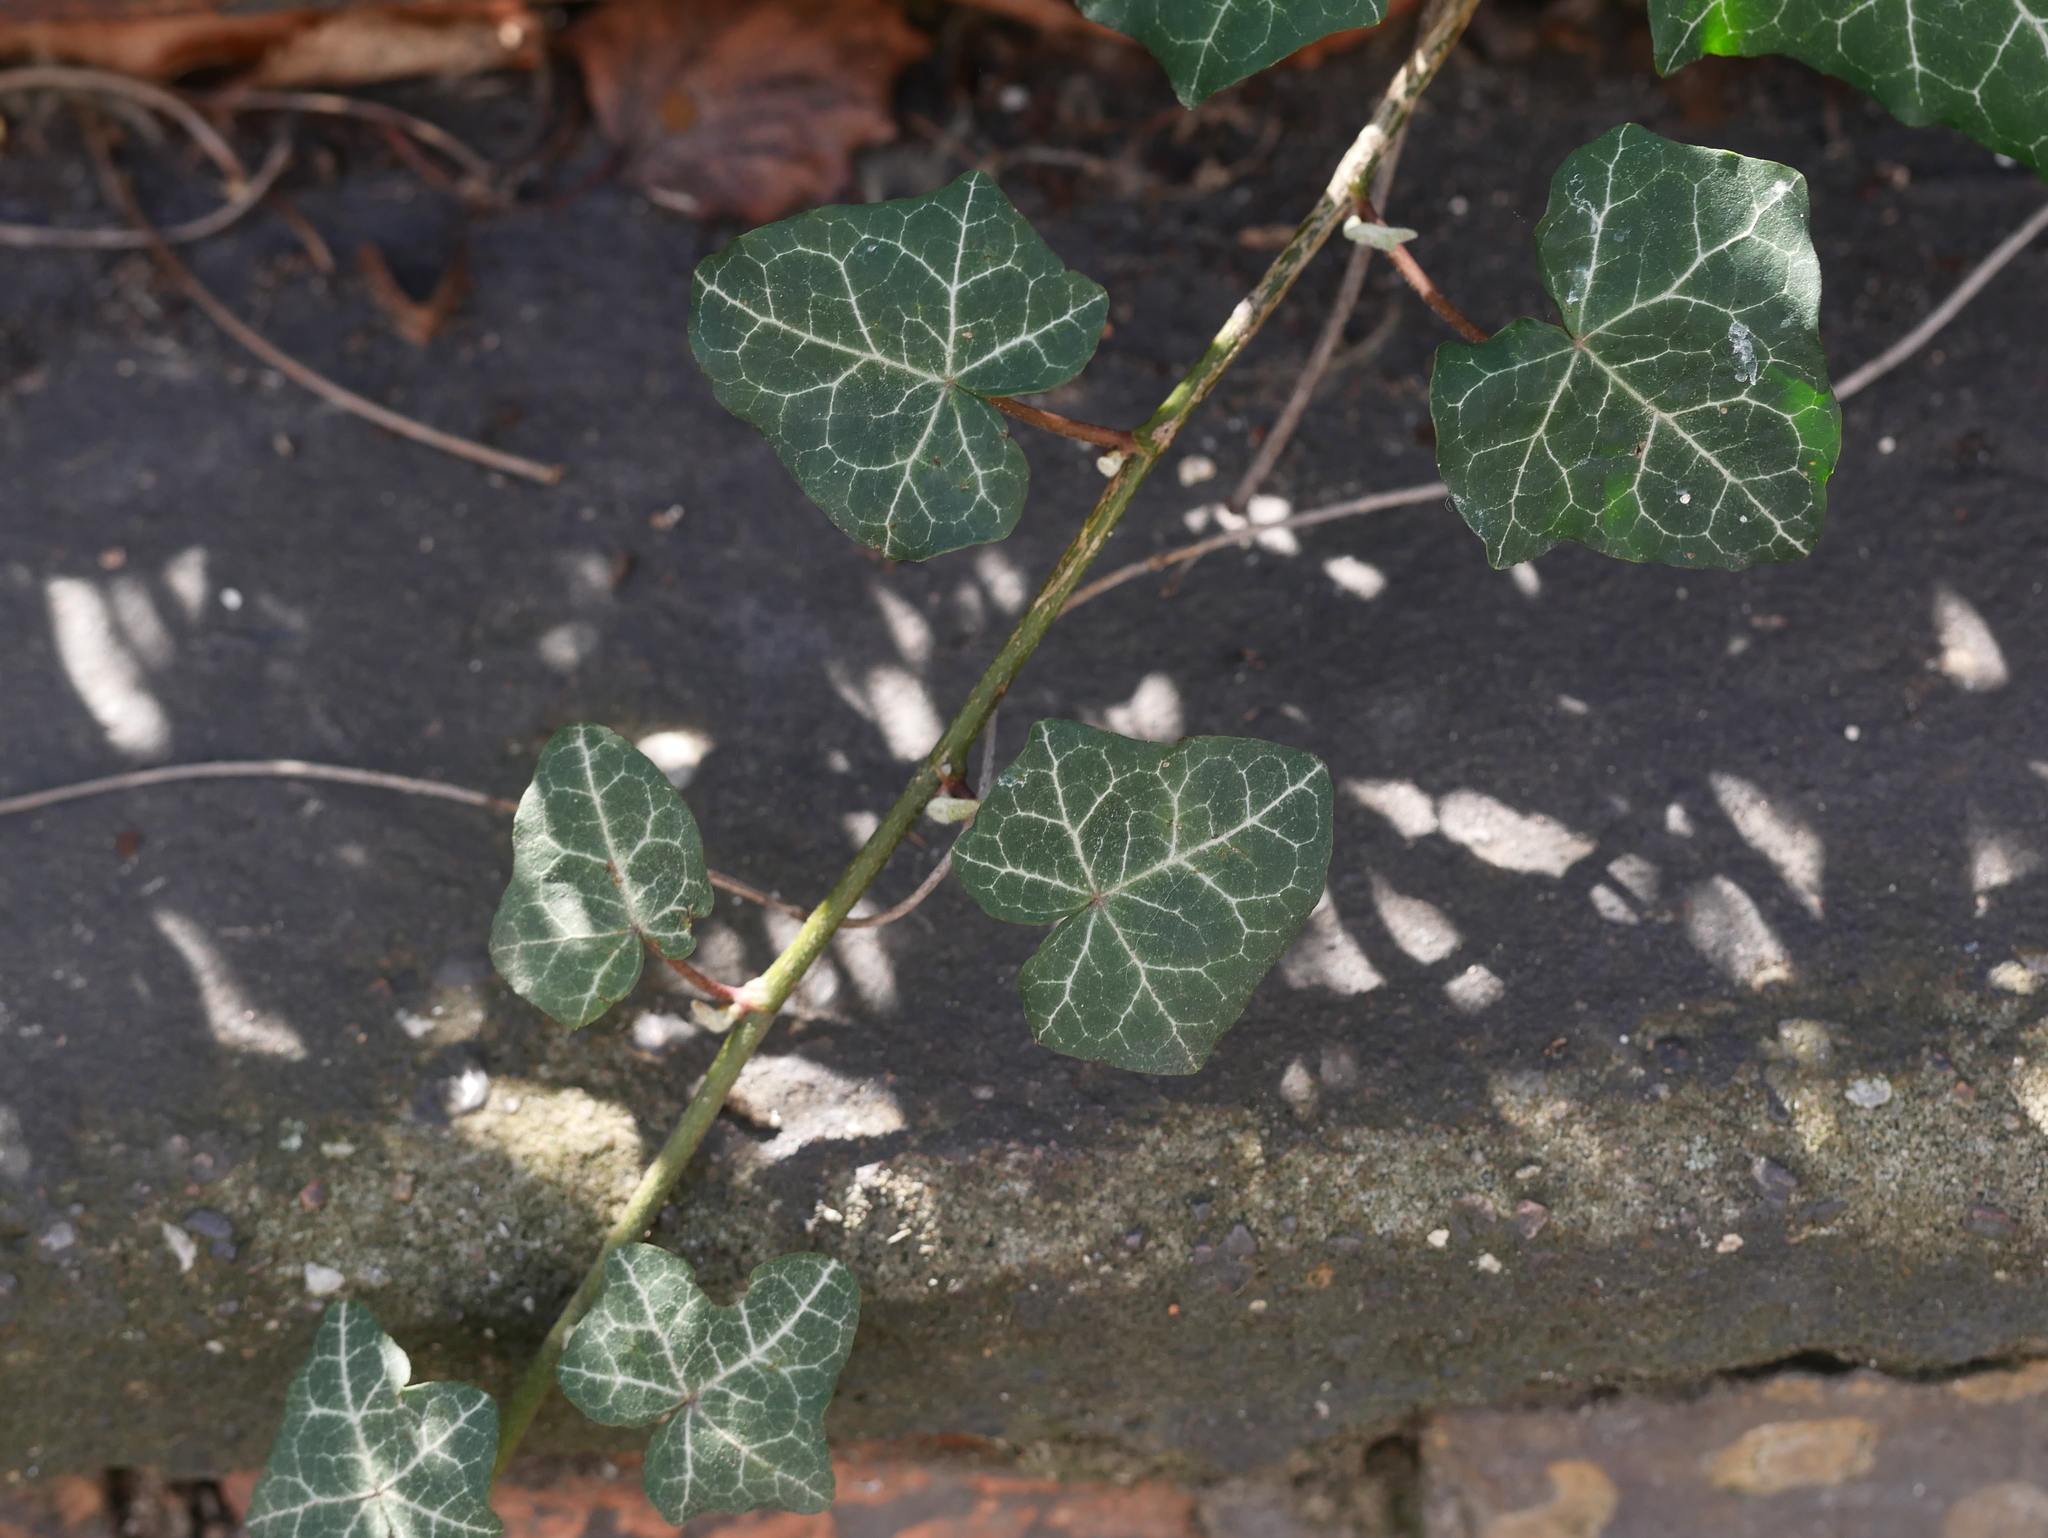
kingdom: Plantae
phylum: Tracheophyta
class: Magnoliopsida
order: Apiales
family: Araliaceae
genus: Hedera
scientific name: Hedera helix
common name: Ivy
